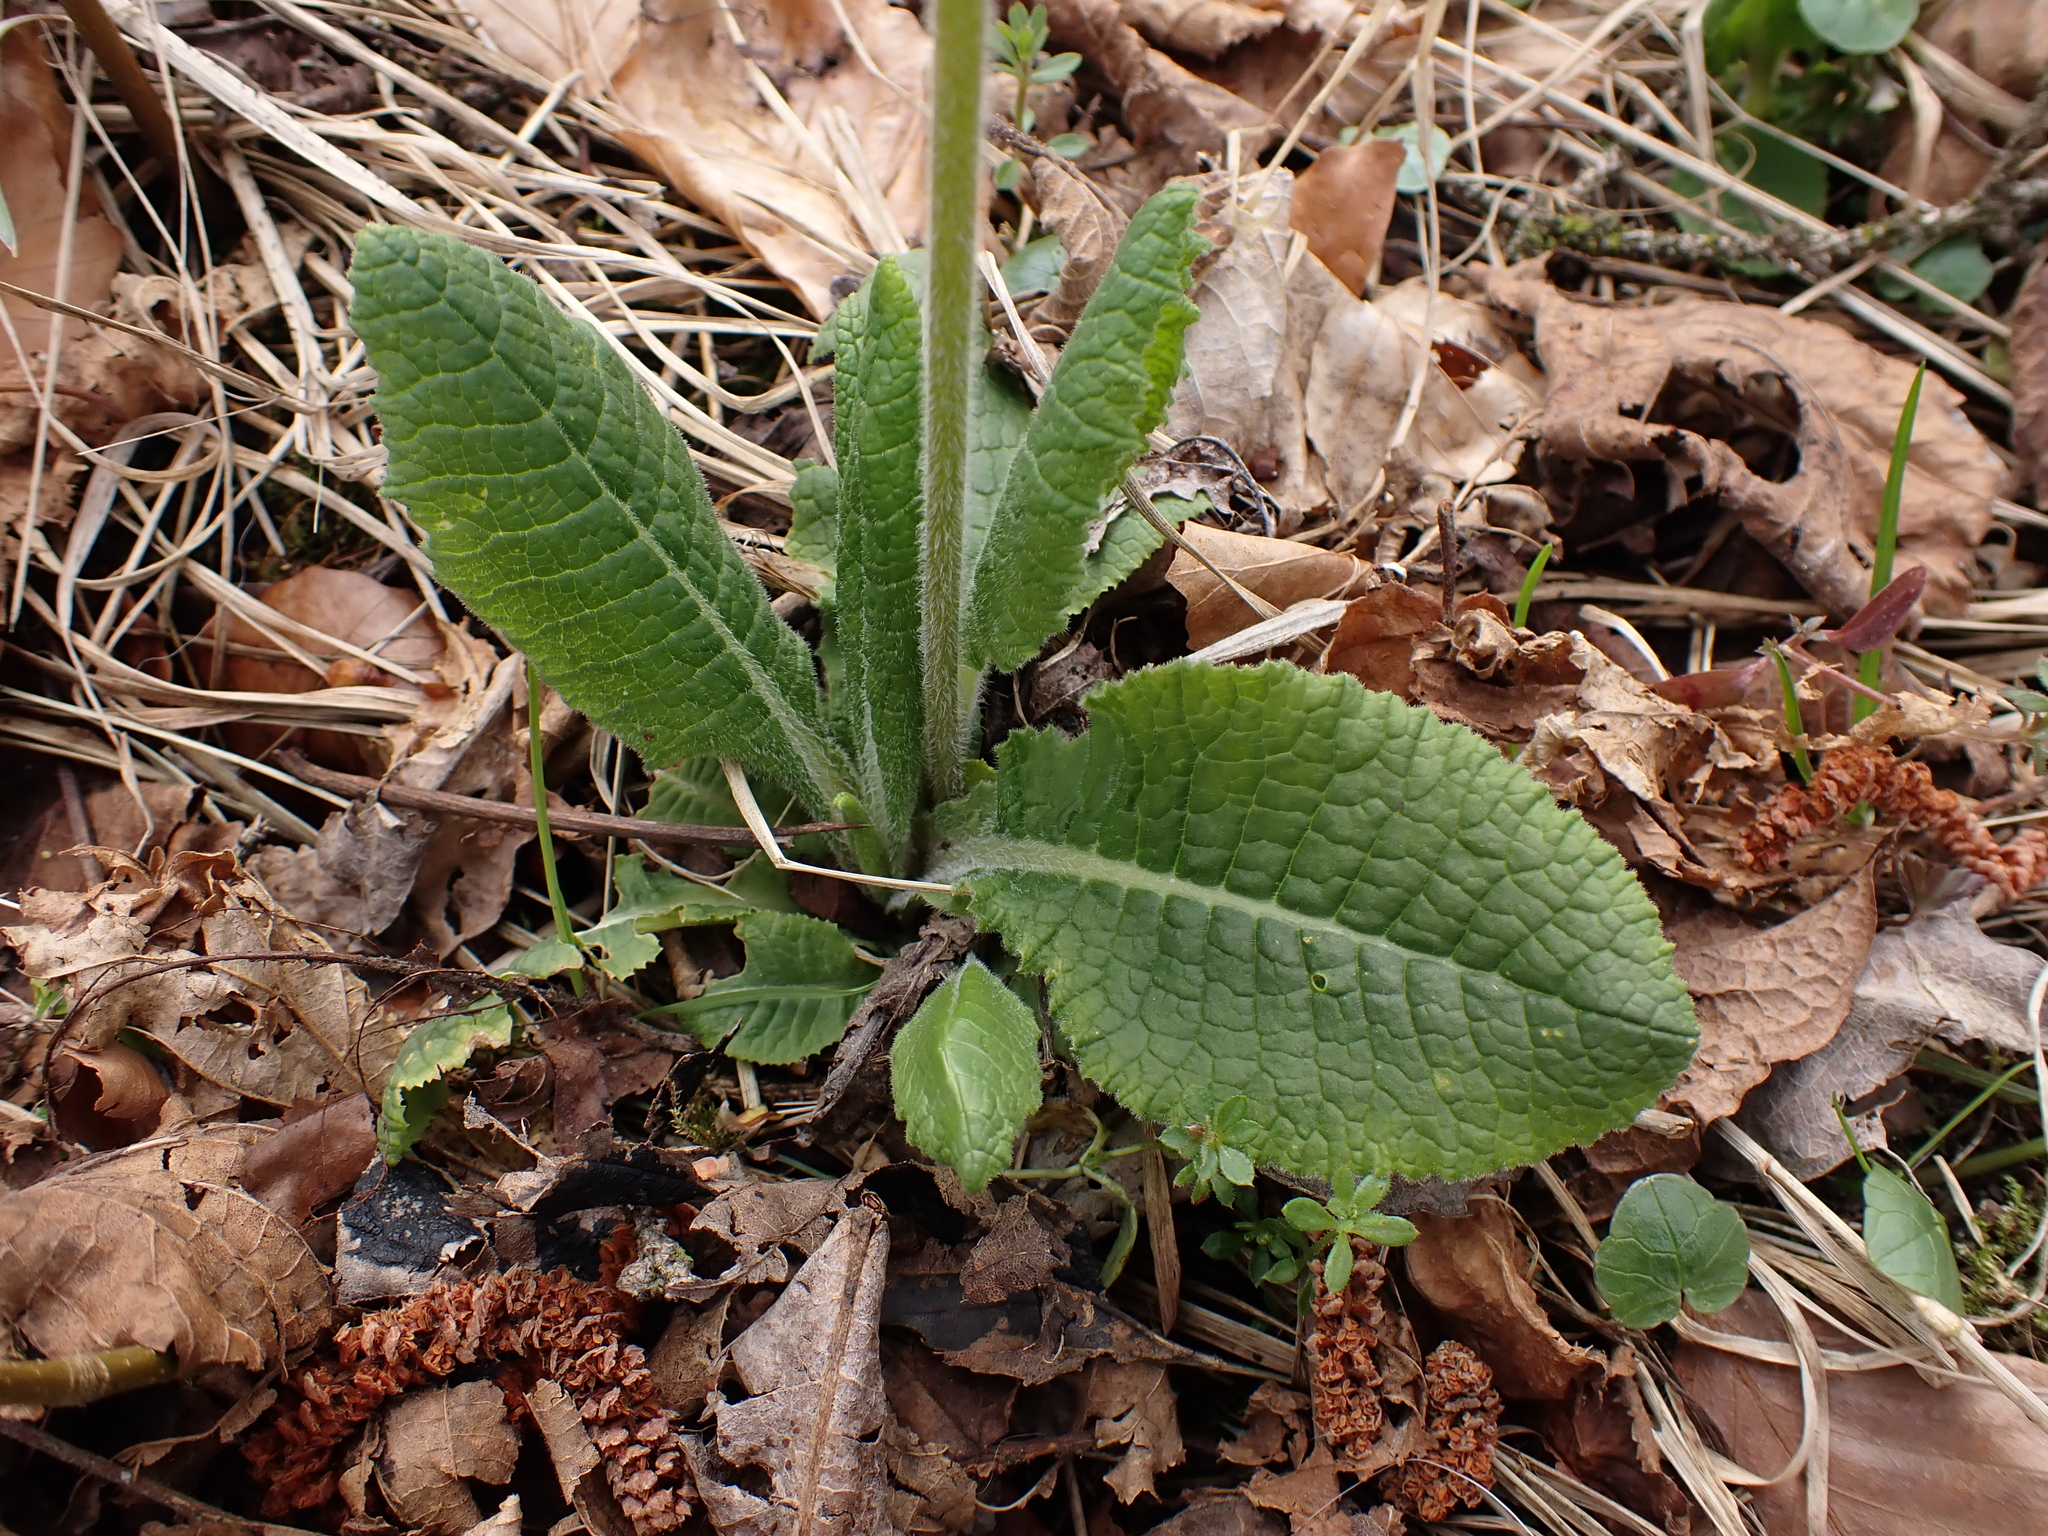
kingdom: Plantae
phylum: Tracheophyta
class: Magnoliopsida
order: Ericales
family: Primulaceae
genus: Primula
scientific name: Primula elatior
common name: Oxlip
